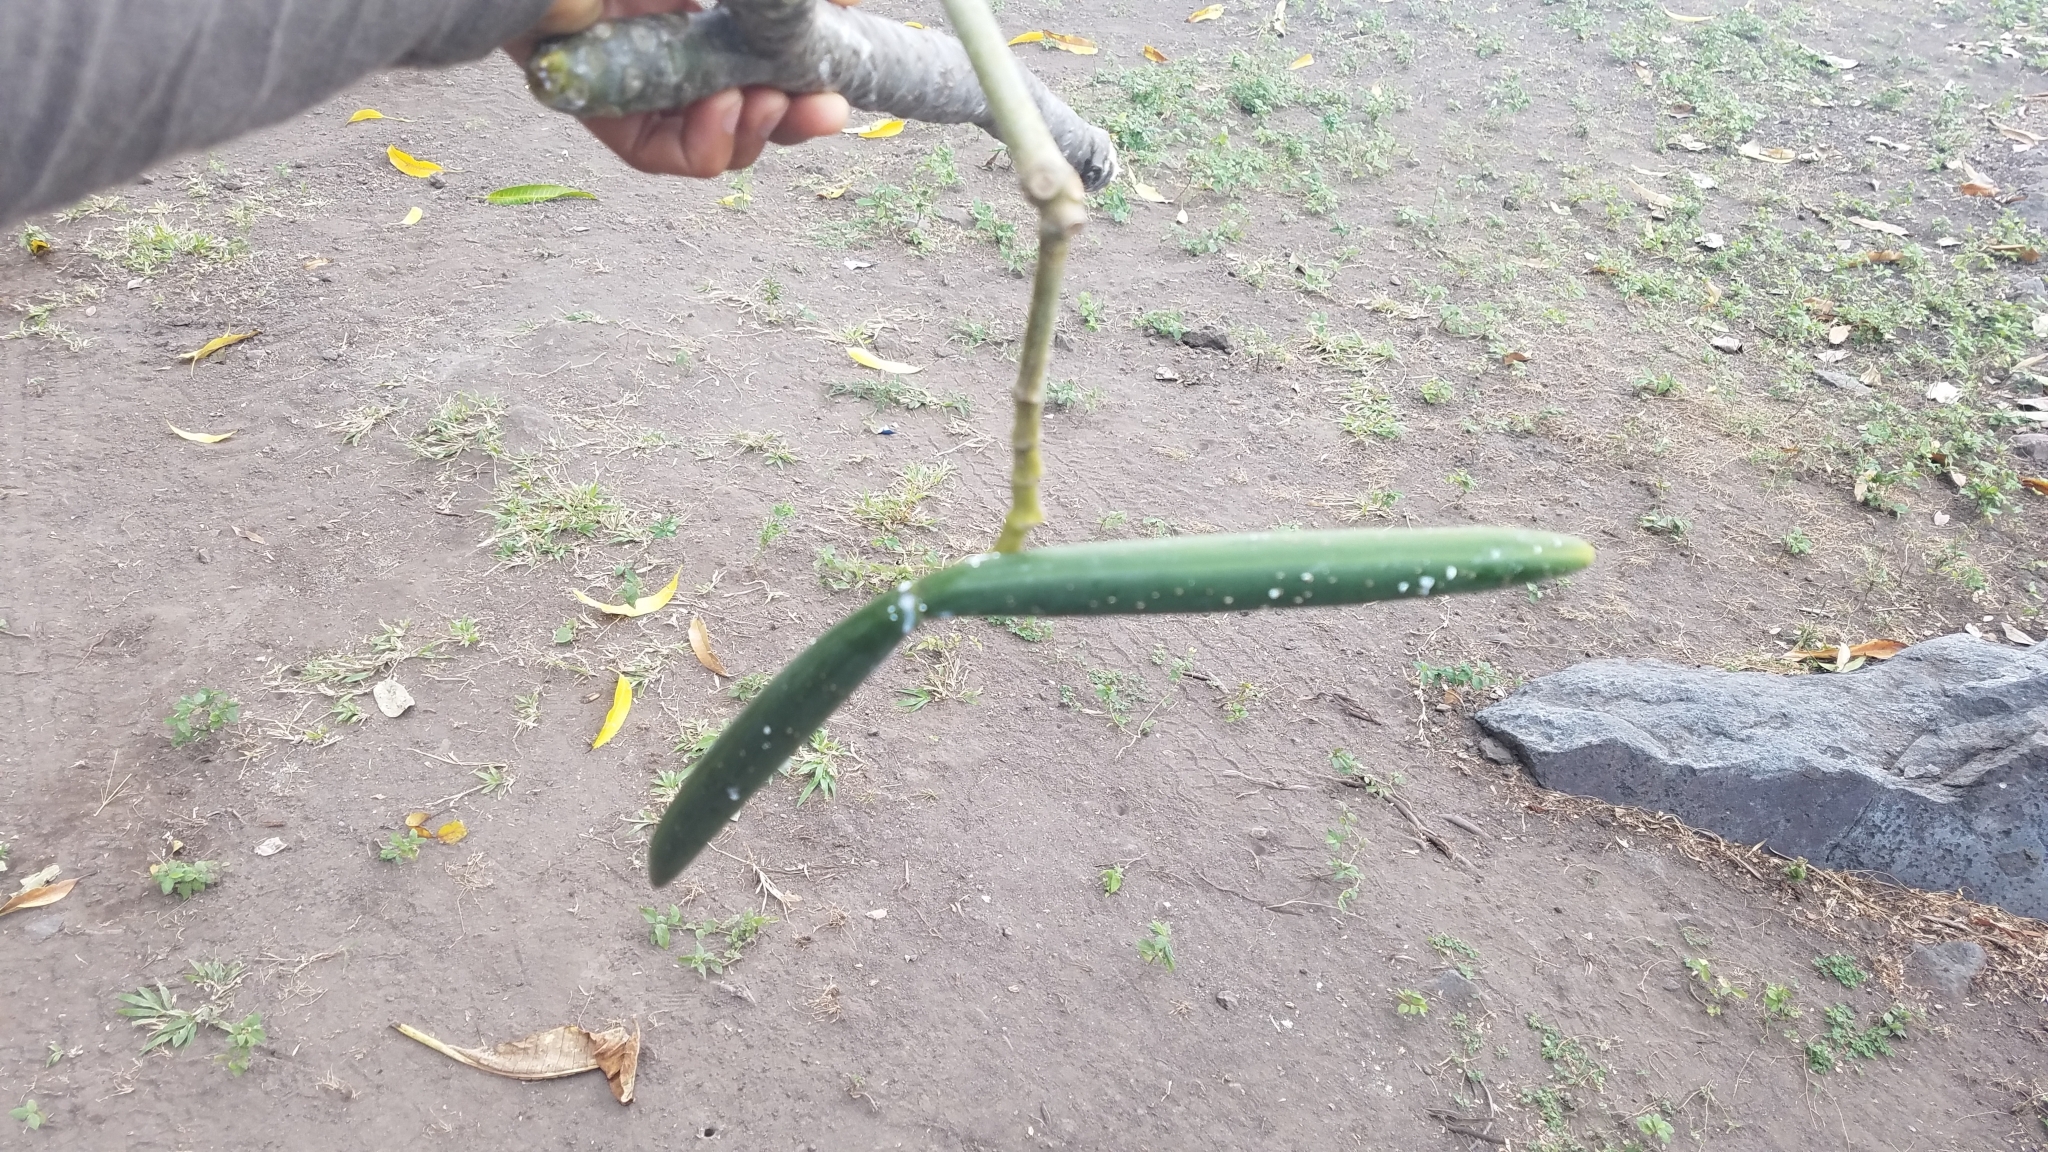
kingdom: Plantae
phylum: Tracheophyta
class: Magnoliopsida
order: Gentianales
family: Apocynaceae
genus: Plumeria
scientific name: Plumeria rubra
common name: Pagoda-tree
